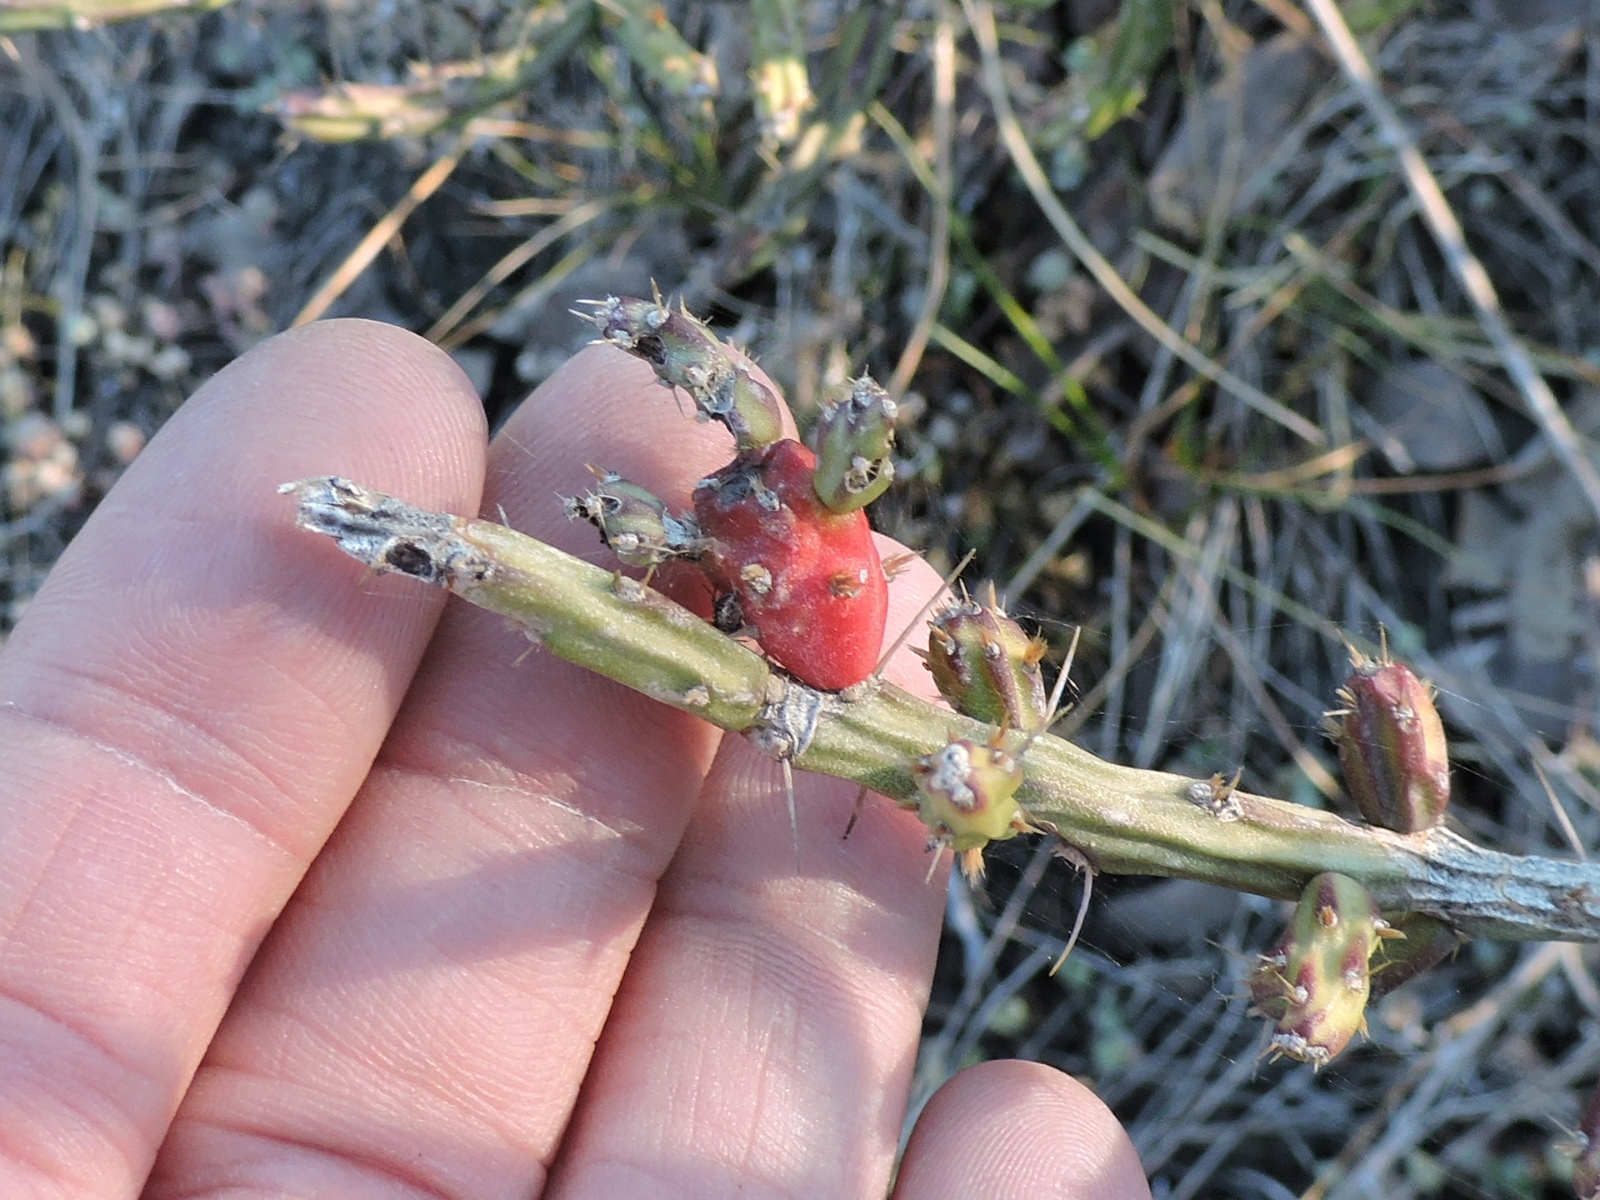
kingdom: Plantae
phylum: Tracheophyta
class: Magnoliopsida
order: Caryophyllales
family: Cactaceae
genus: Cylindropuntia
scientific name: Cylindropuntia leptocaulis
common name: Christmas cactus
